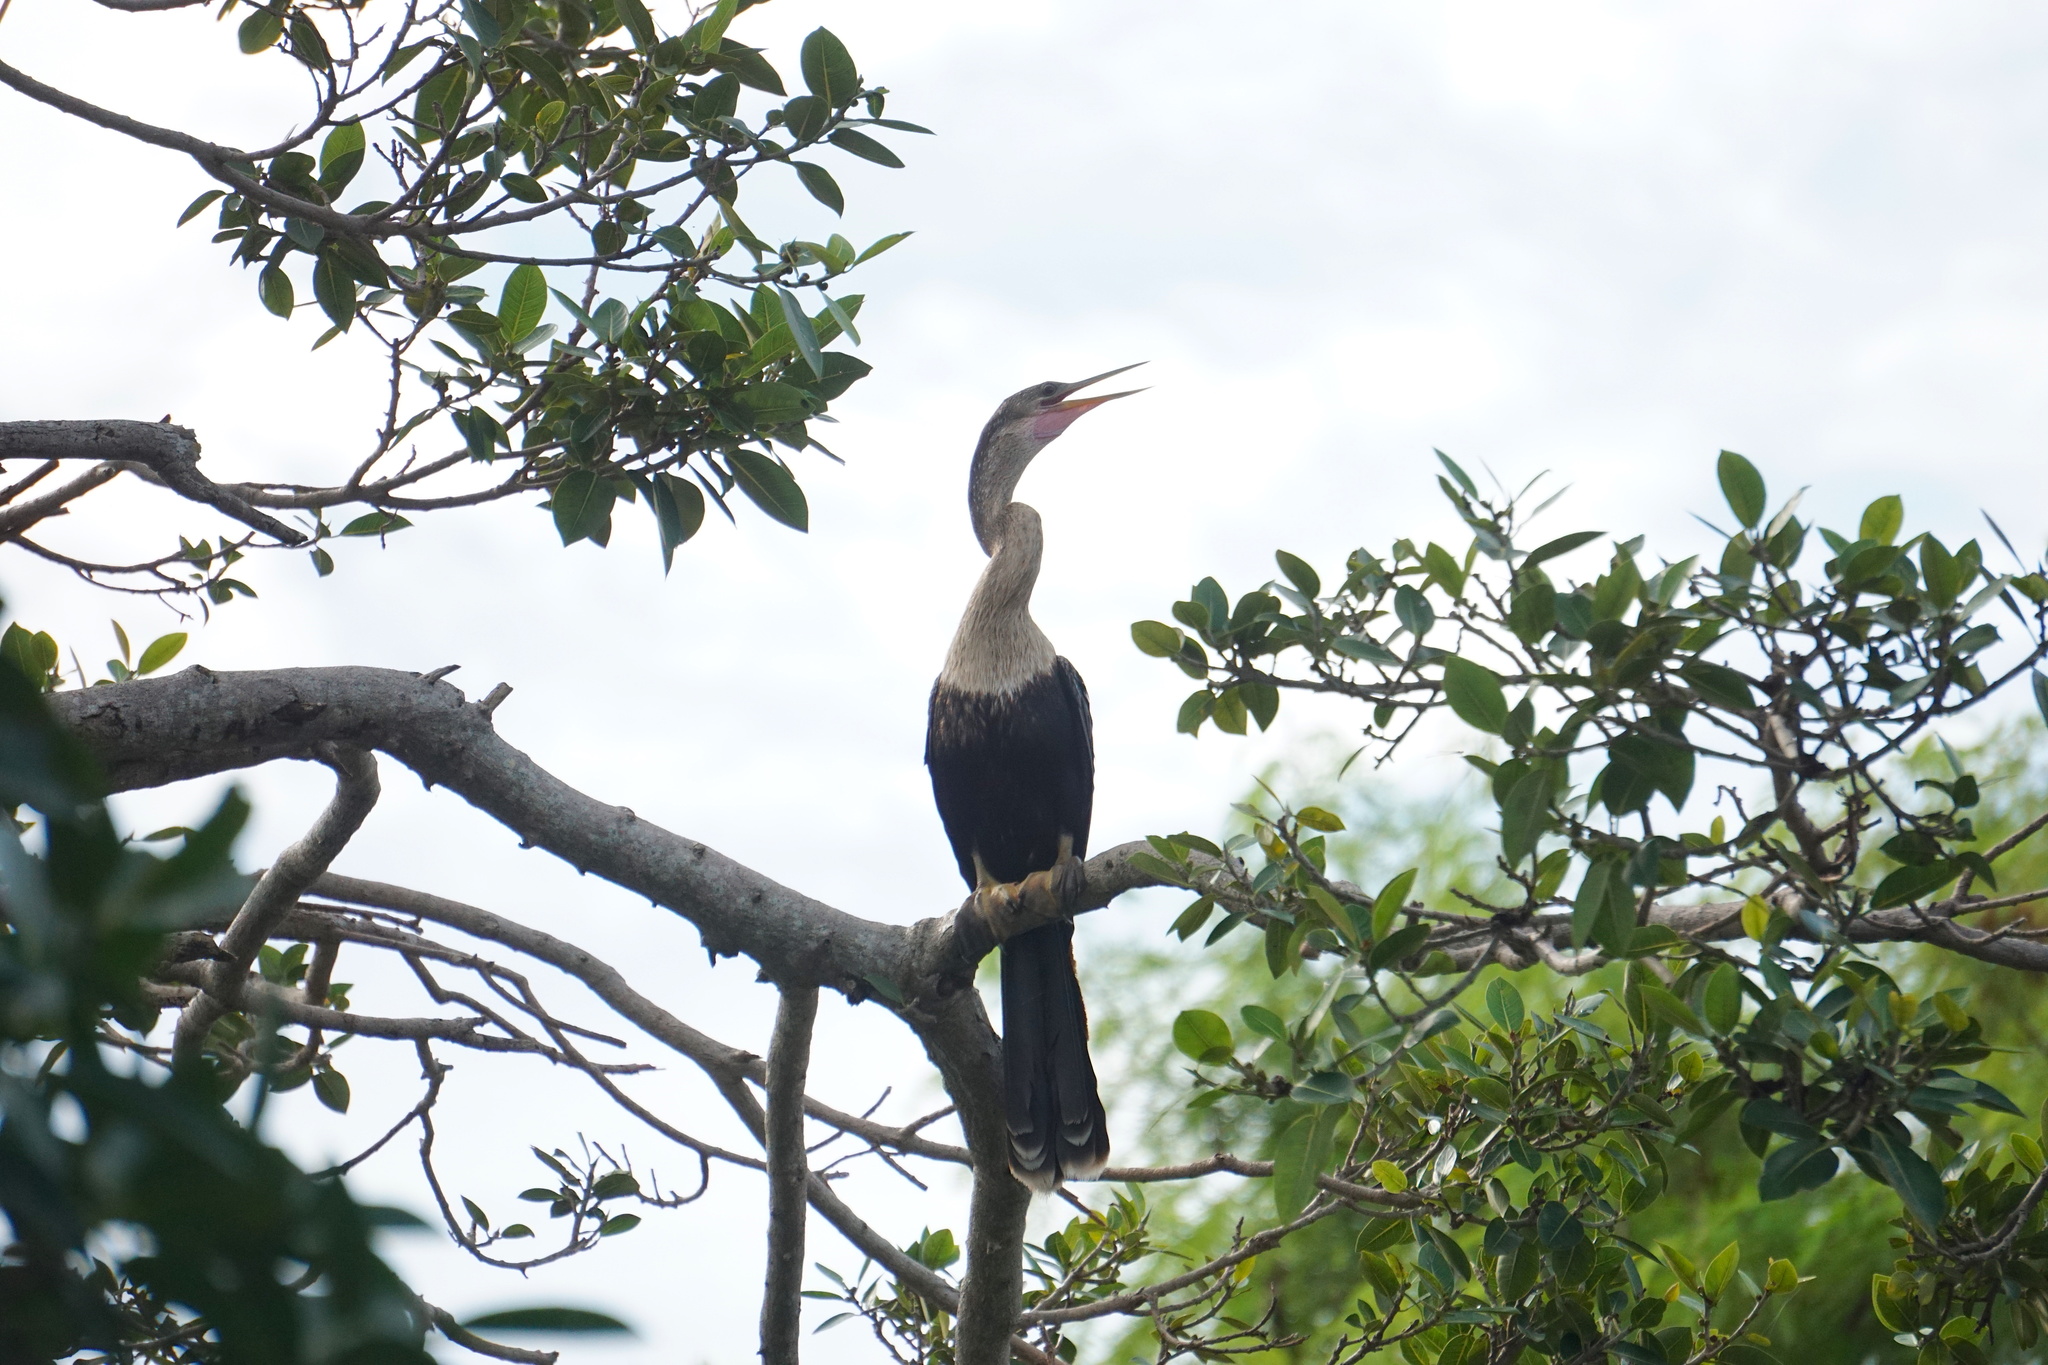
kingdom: Animalia
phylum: Chordata
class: Aves
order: Suliformes
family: Anhingidae
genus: Anhinga
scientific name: Anhinga anhinga
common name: Anhinga
